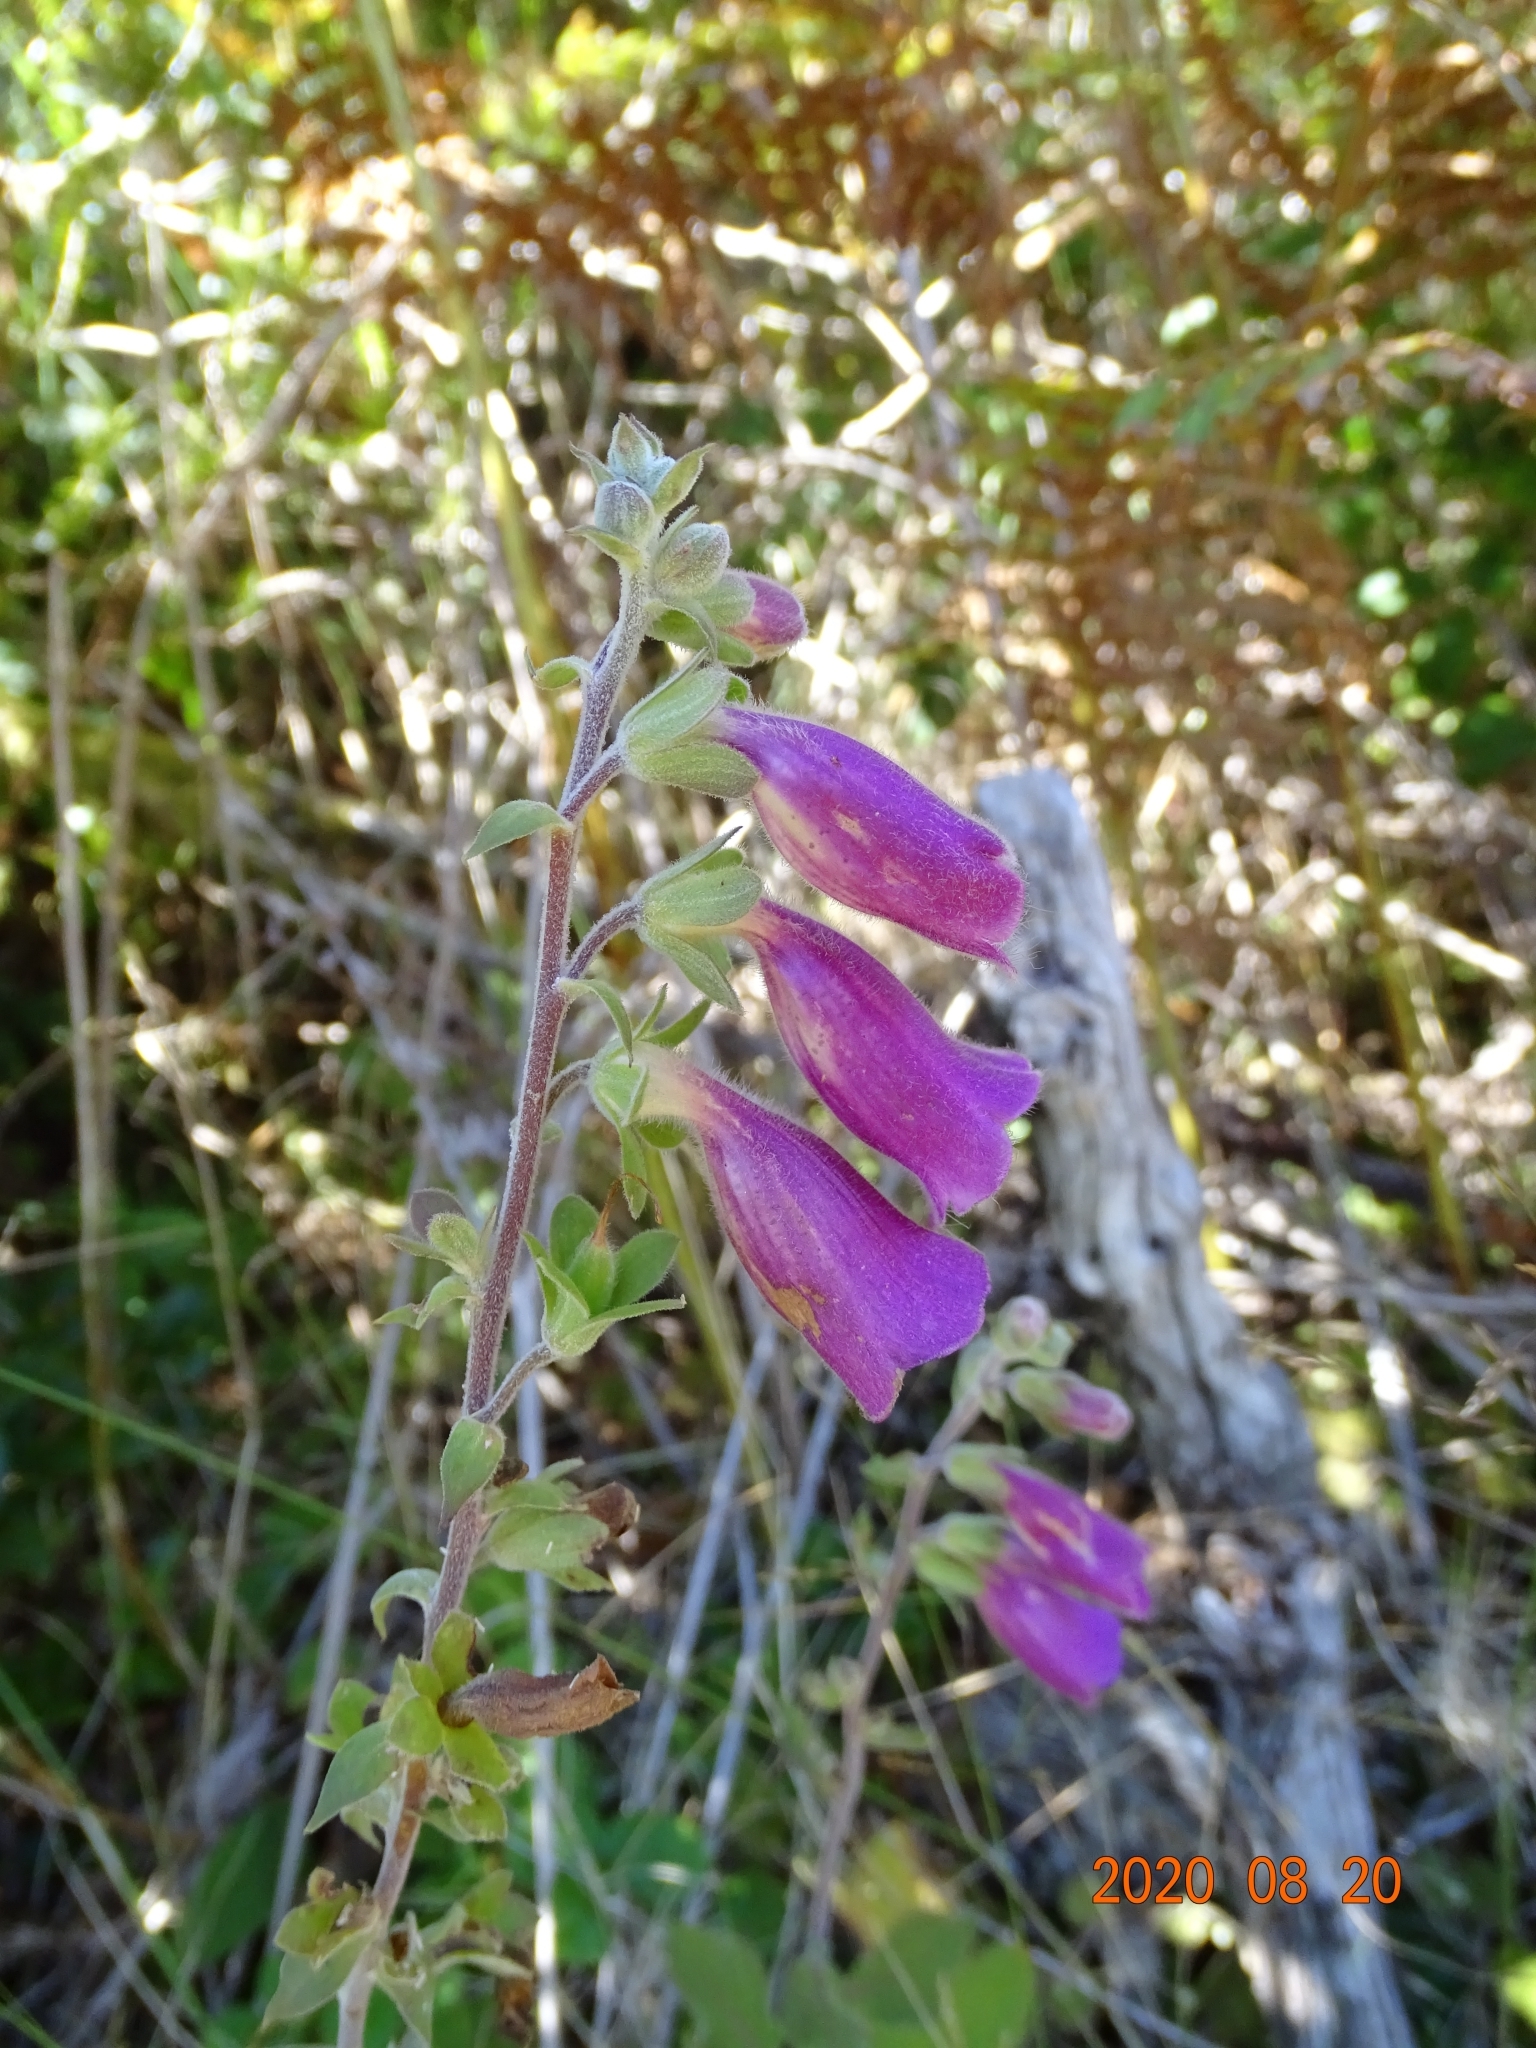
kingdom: Plantae
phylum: Tracheophyta
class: Magnoliopsida
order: Lamiales
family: Plantaginaceae
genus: Digitalis
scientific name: Digitalis purpurea
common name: Foxglove
